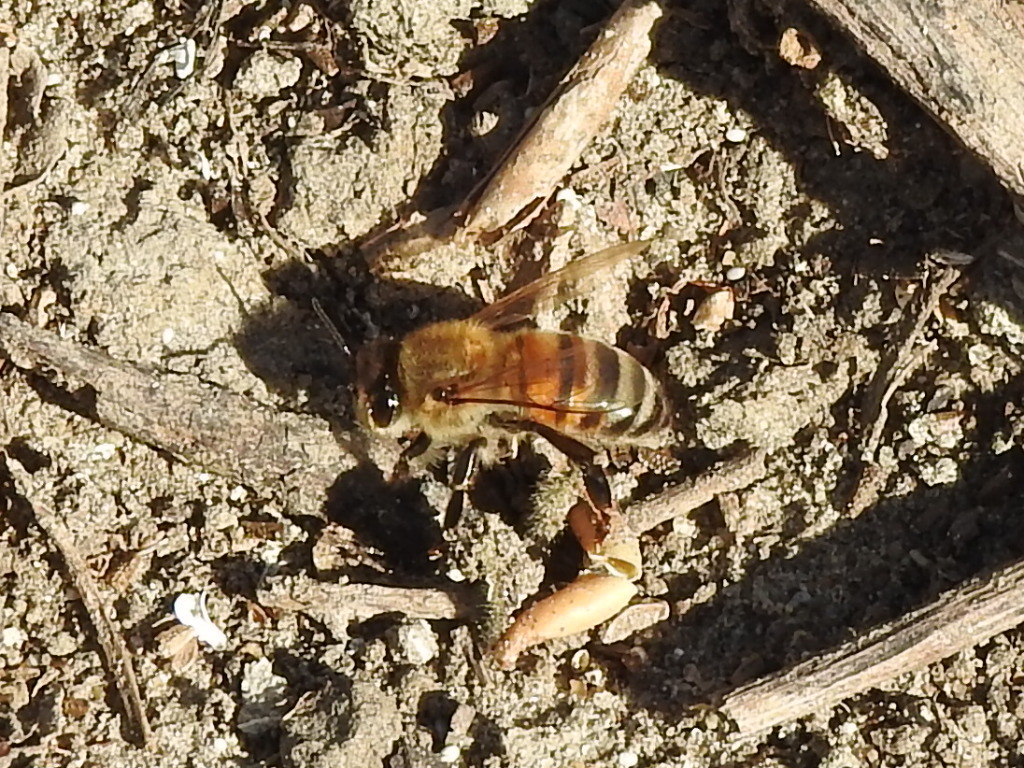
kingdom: Animalia
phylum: Arthropoda
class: Insecta
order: Hymenoptera
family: Apidae
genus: Apis
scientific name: Apis mellifera
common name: Honey bee
